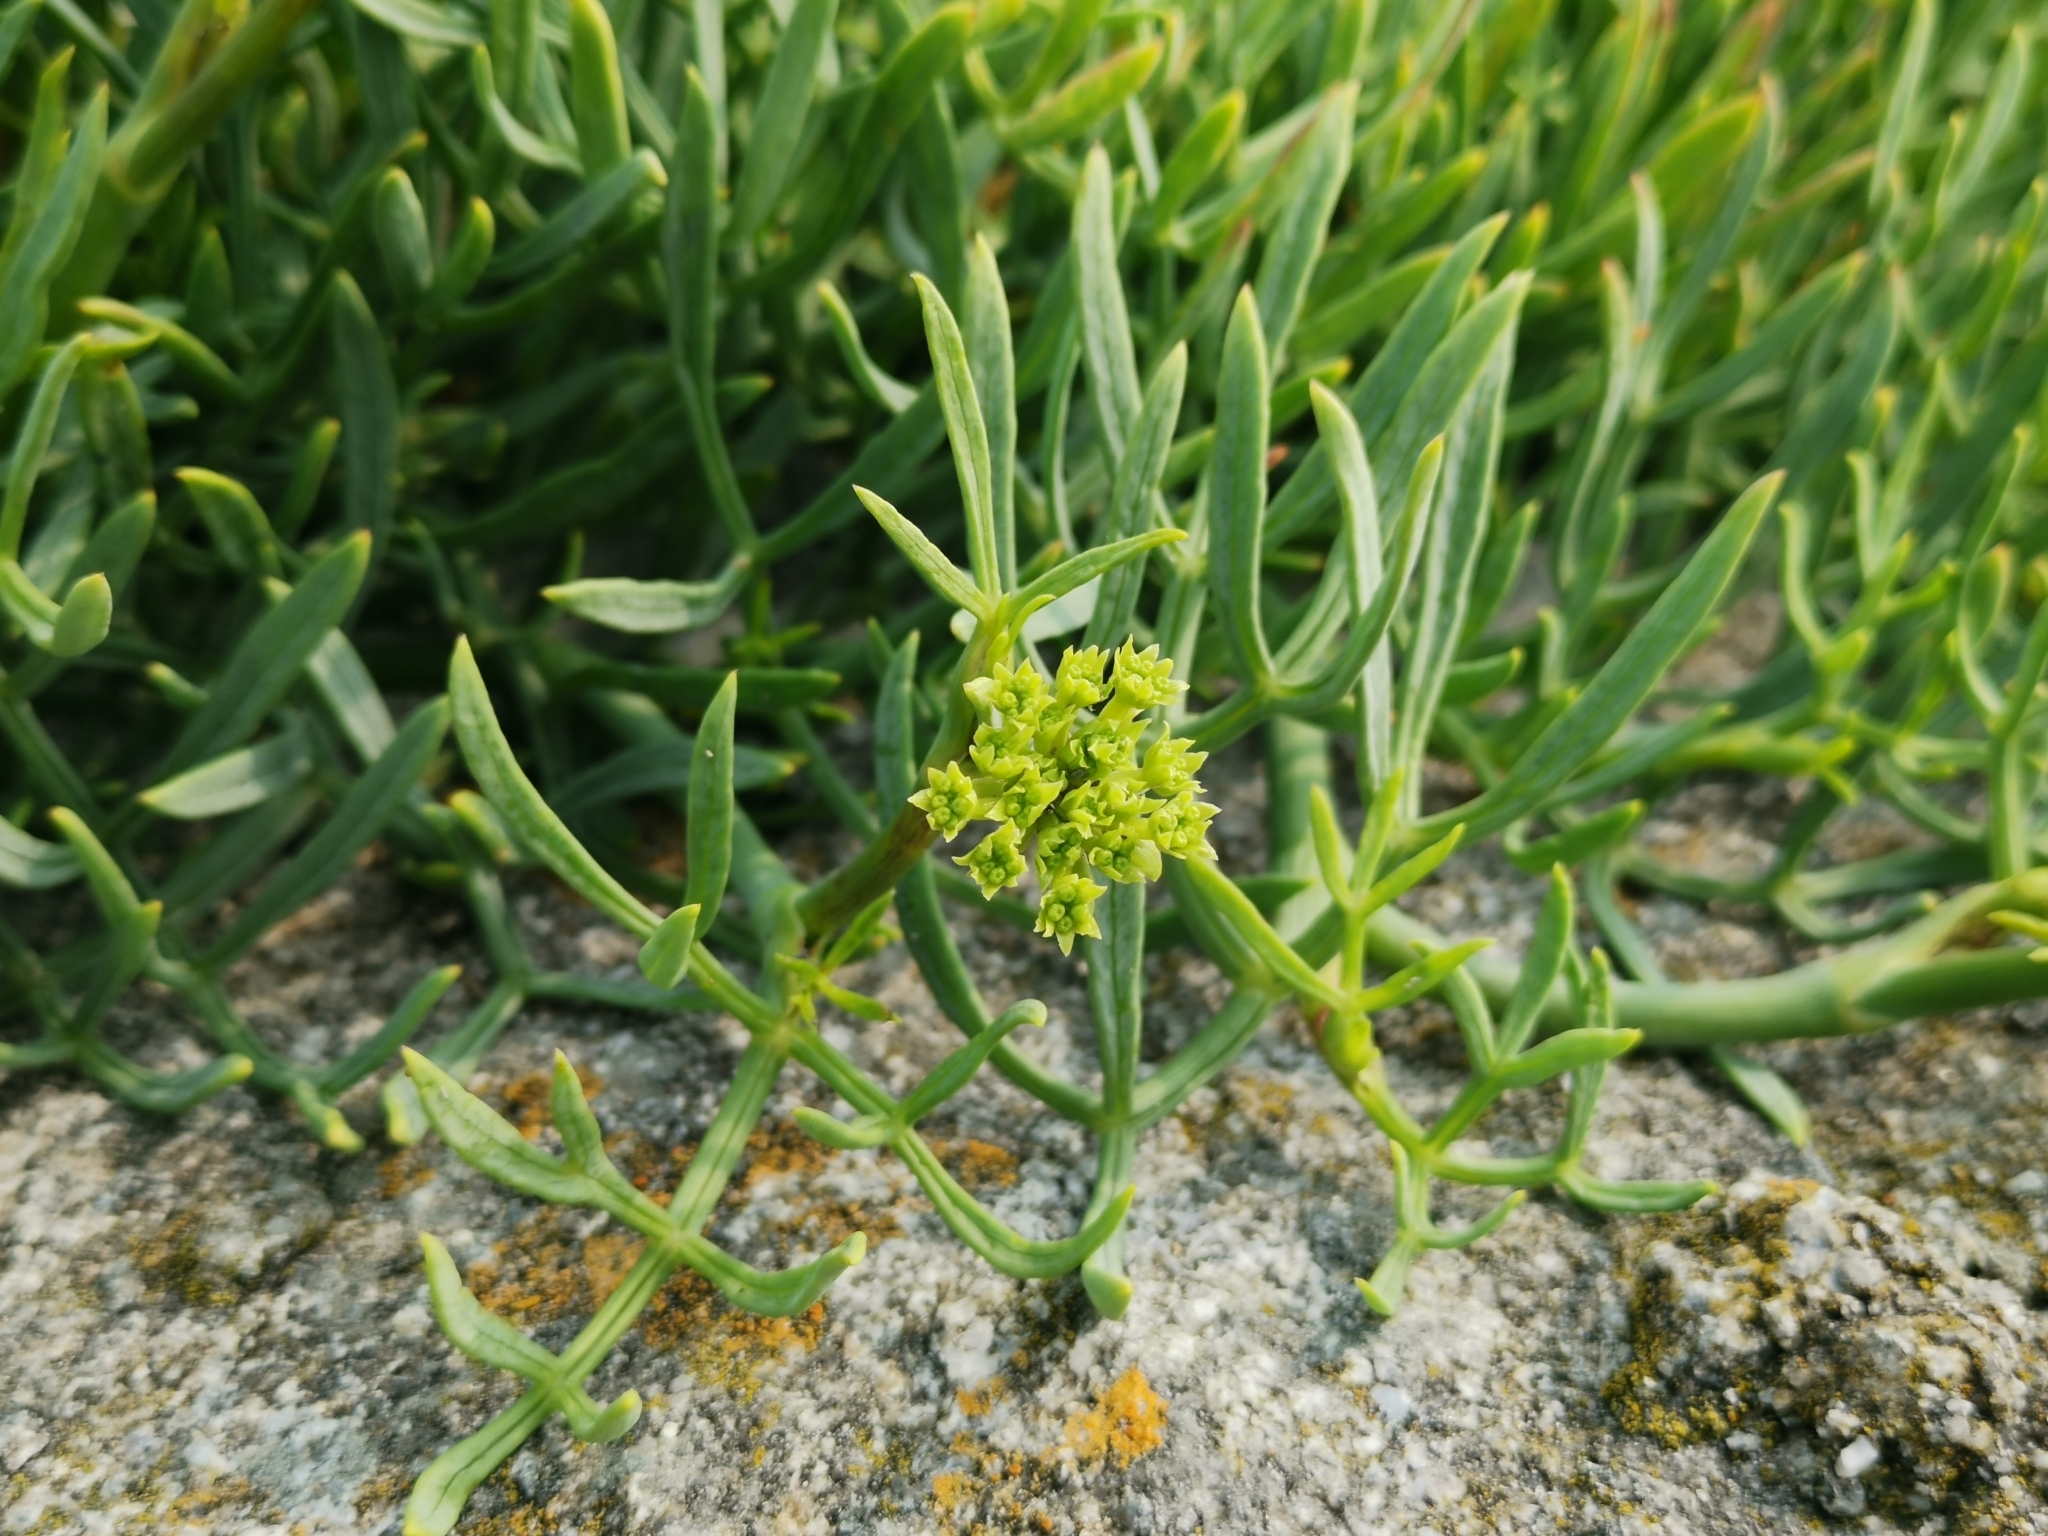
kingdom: Plantae
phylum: Tracheophyta
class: Magnoliopsida
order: Apiales
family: Apiaceae
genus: Crithmum
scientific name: Crithmum maritimum
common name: Rock samphire
